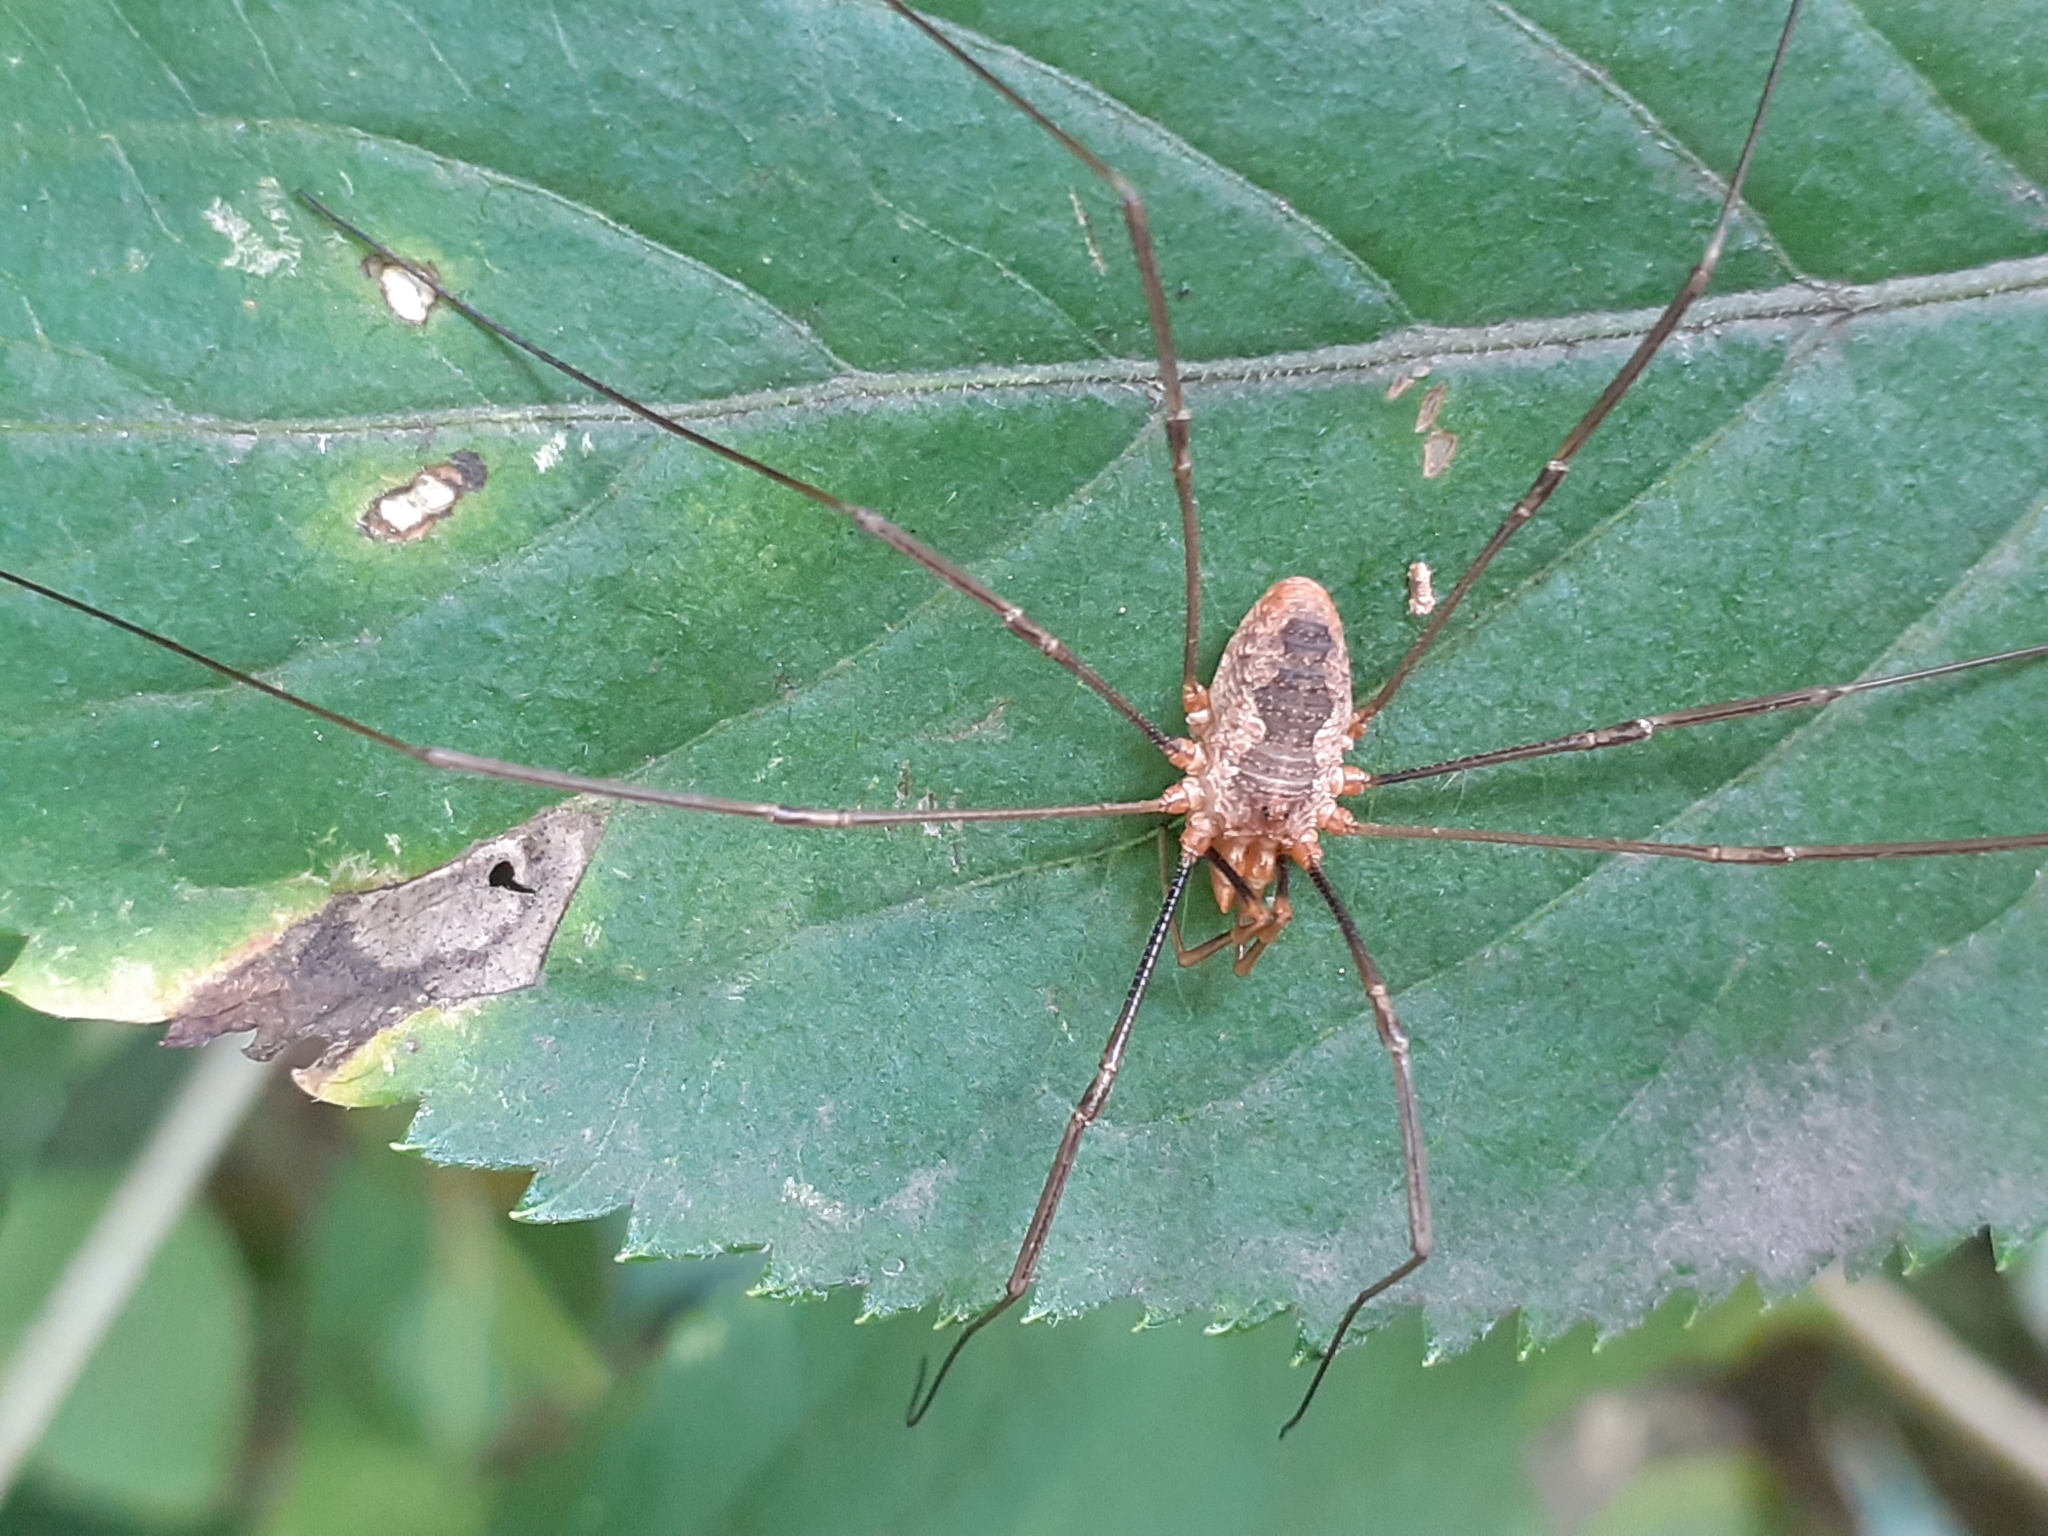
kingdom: Animalia
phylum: Arthropoda
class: Arachnida
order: Opiliones
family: Phalangiidae
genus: Phalangium
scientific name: Phalangium opilio
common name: Daddy longleg
